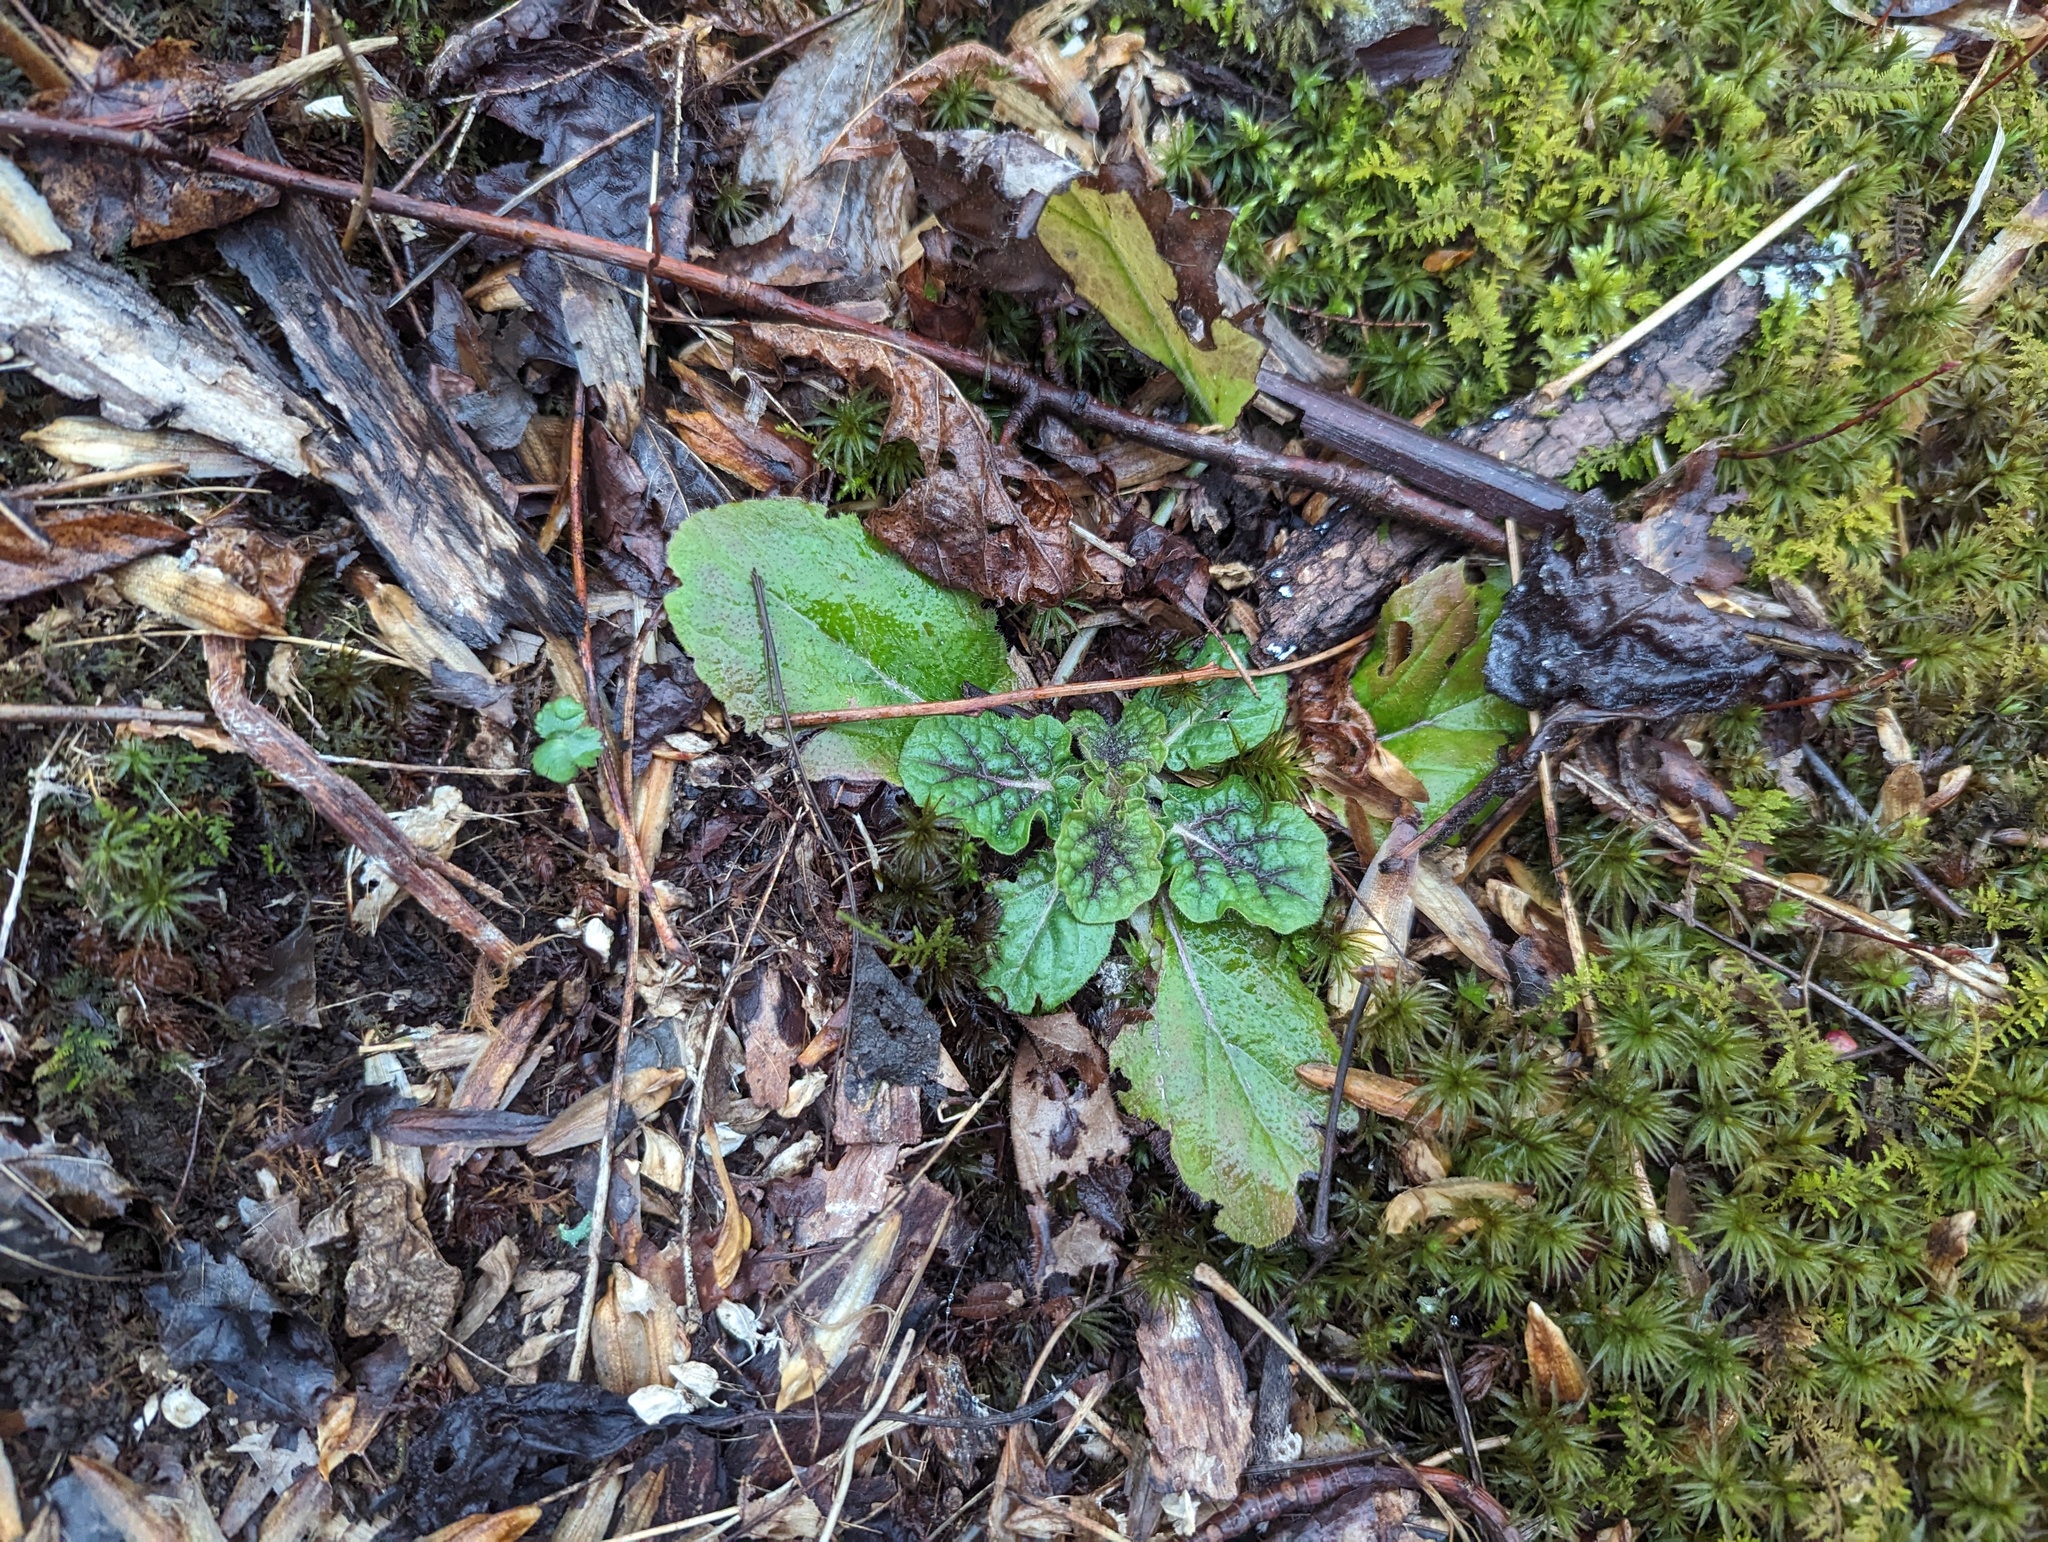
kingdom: Plantae
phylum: Tracheophyta
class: Magnoliopsida
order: Lamiales
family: Lamiaceae
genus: Salvia
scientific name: Salvia lyrata
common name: Cancerweed
